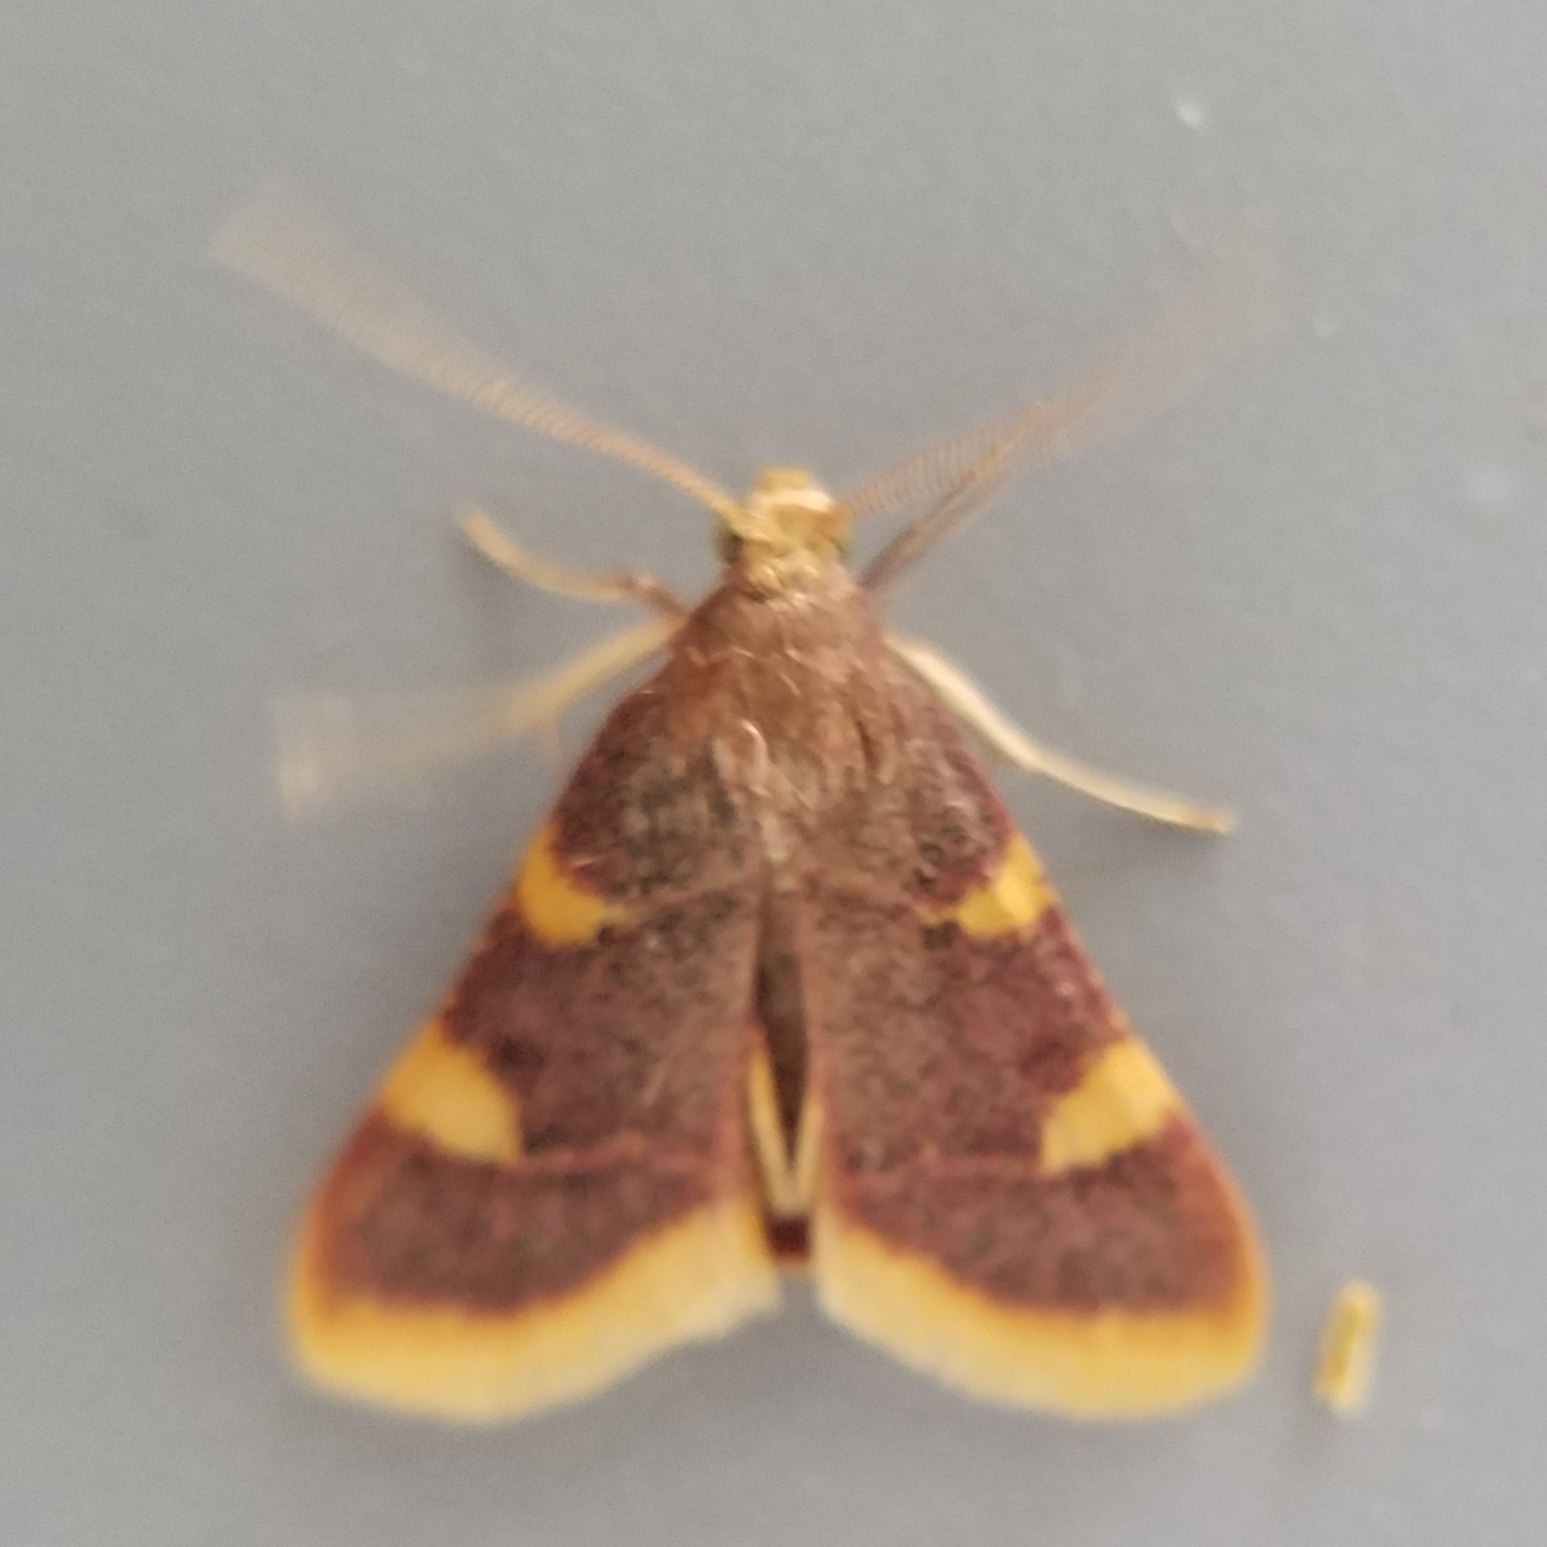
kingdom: Animalia
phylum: Arthropoda
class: Insecta
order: Lepidoptera
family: Pyralidae
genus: Hypsopygia
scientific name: Hypsopygia costalis
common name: Gold triangle
